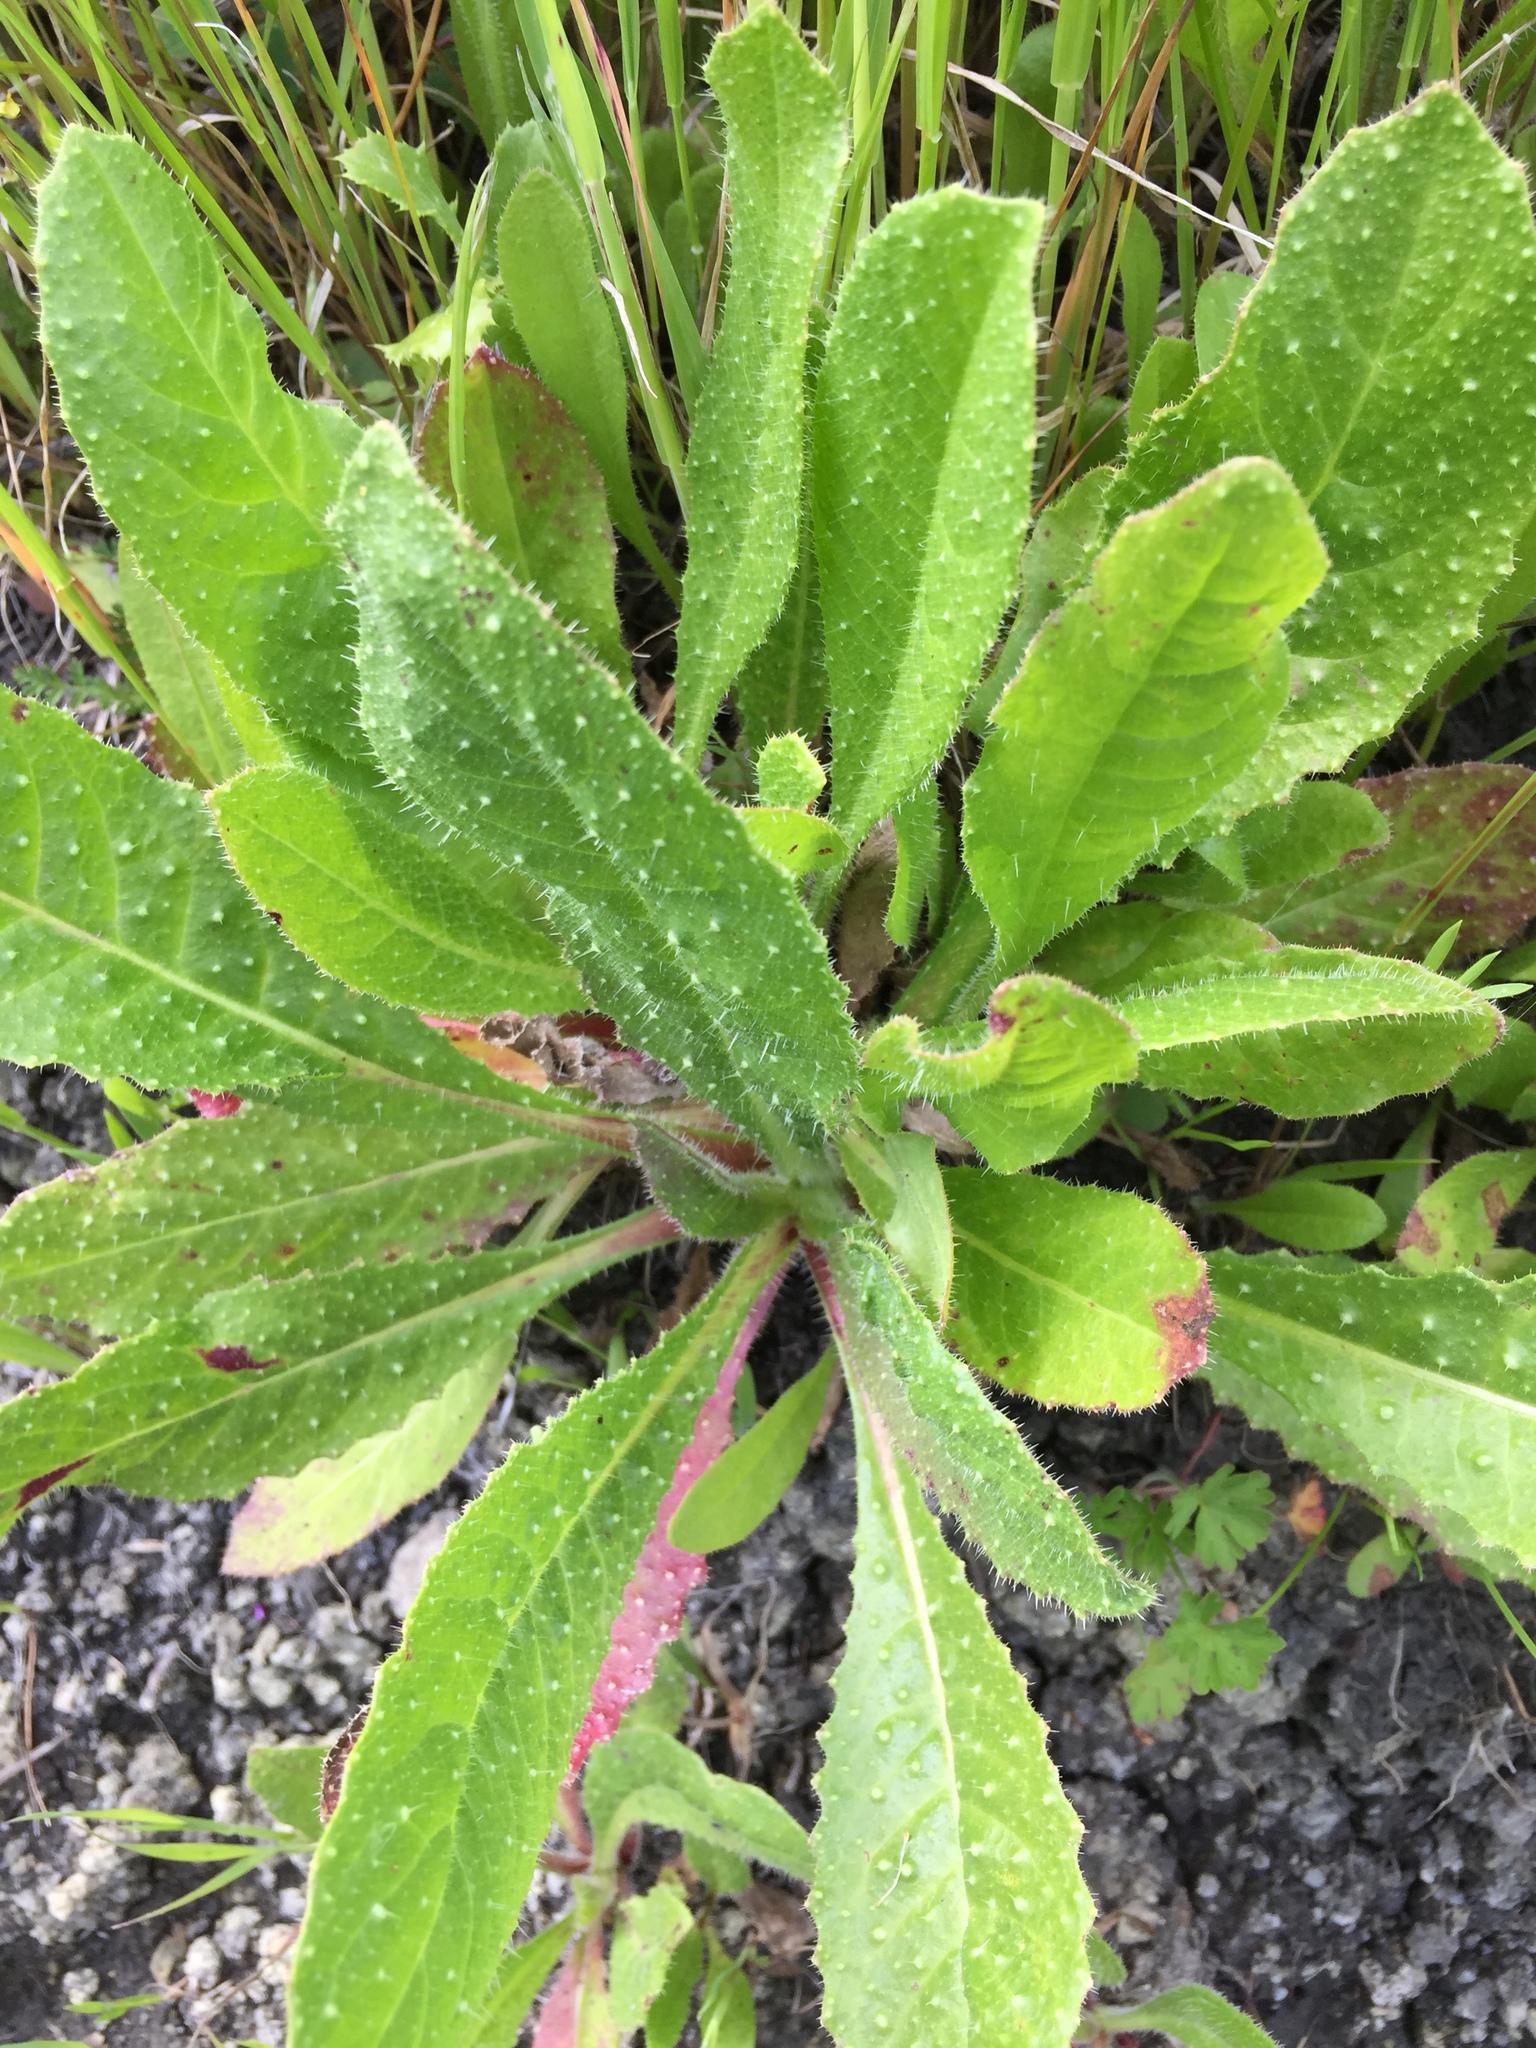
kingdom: Plantae
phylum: Tracheophyta
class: Magnoliopsida
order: Asterales
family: Asteraceae
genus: Helminthotheca
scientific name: Helminthotheca echioides
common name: Ox-tongue
